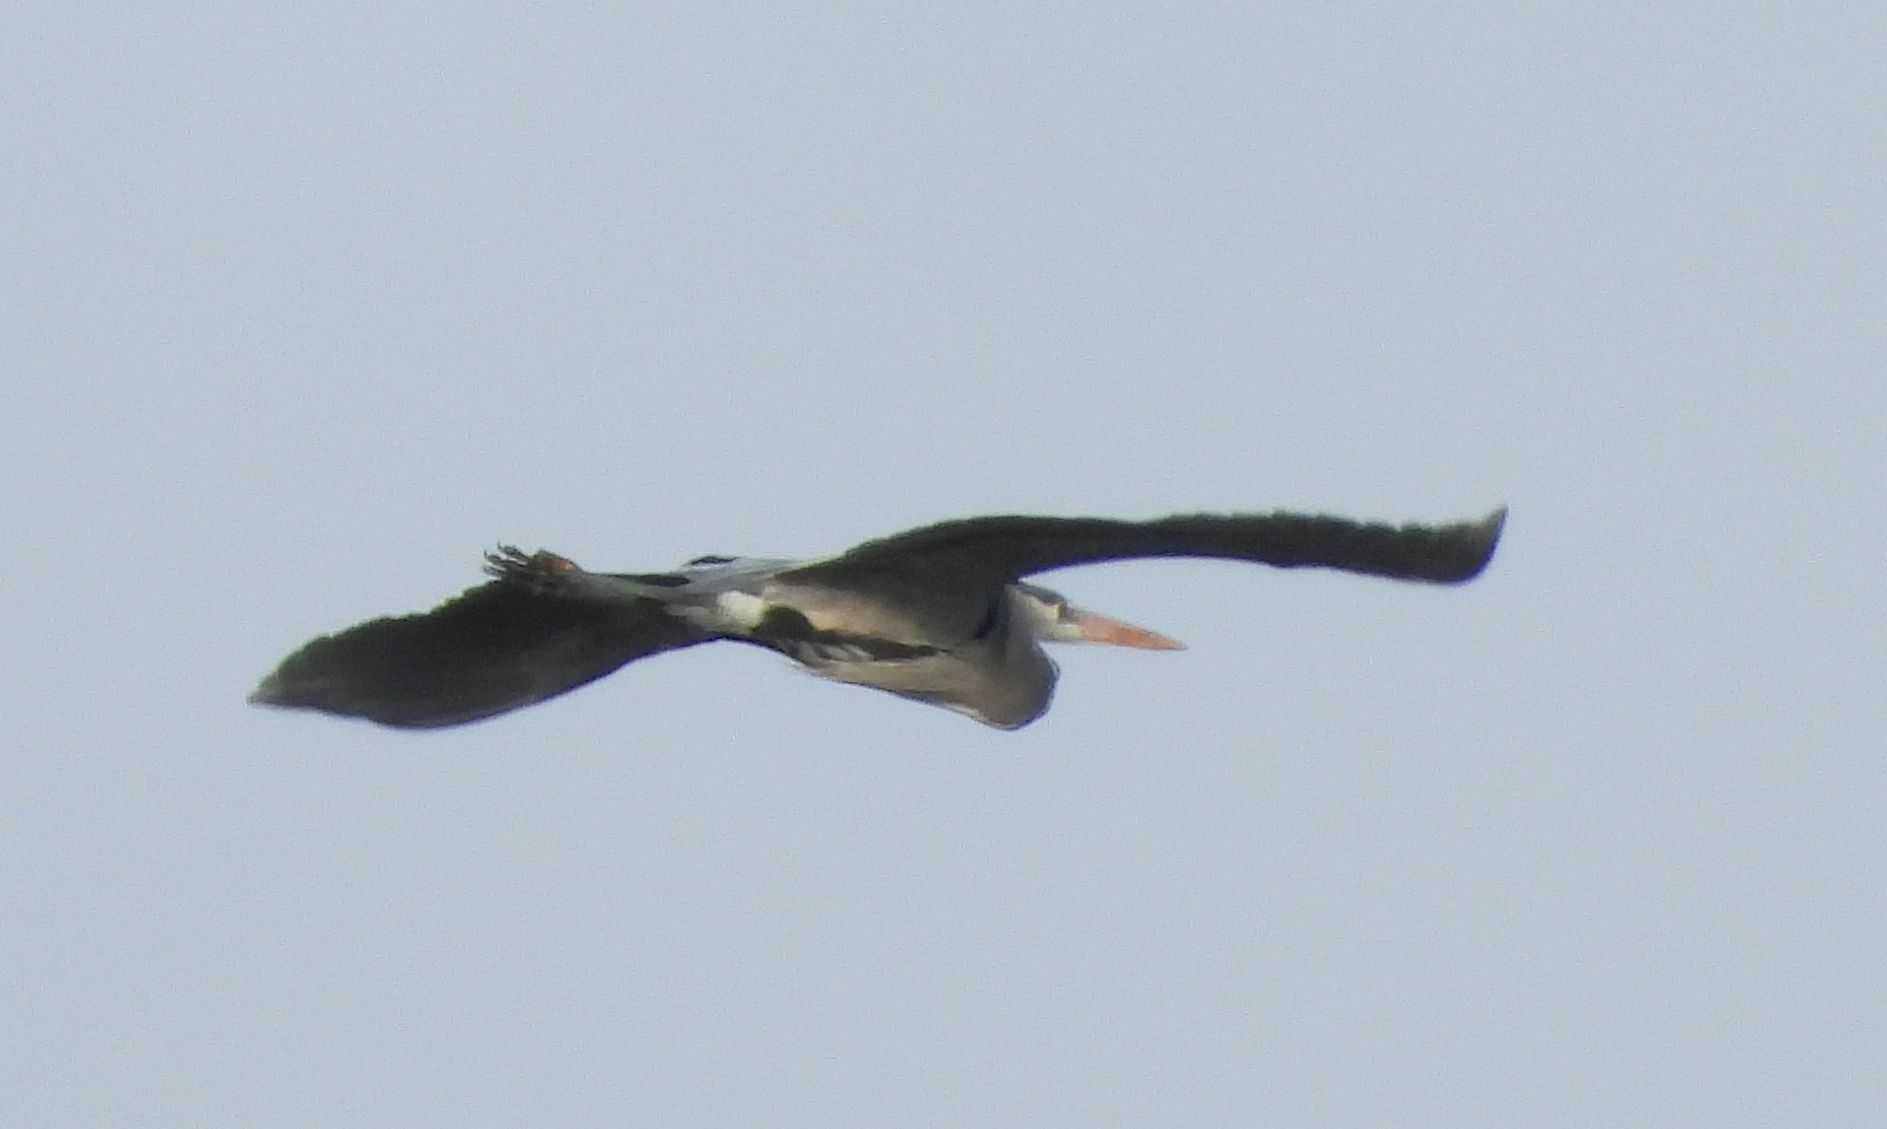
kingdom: Animalia
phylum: Chordata
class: Aves
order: Pelecaniformes
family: Ardeidae
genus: Ardea
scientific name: Ardea herodias
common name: Great blue heron
